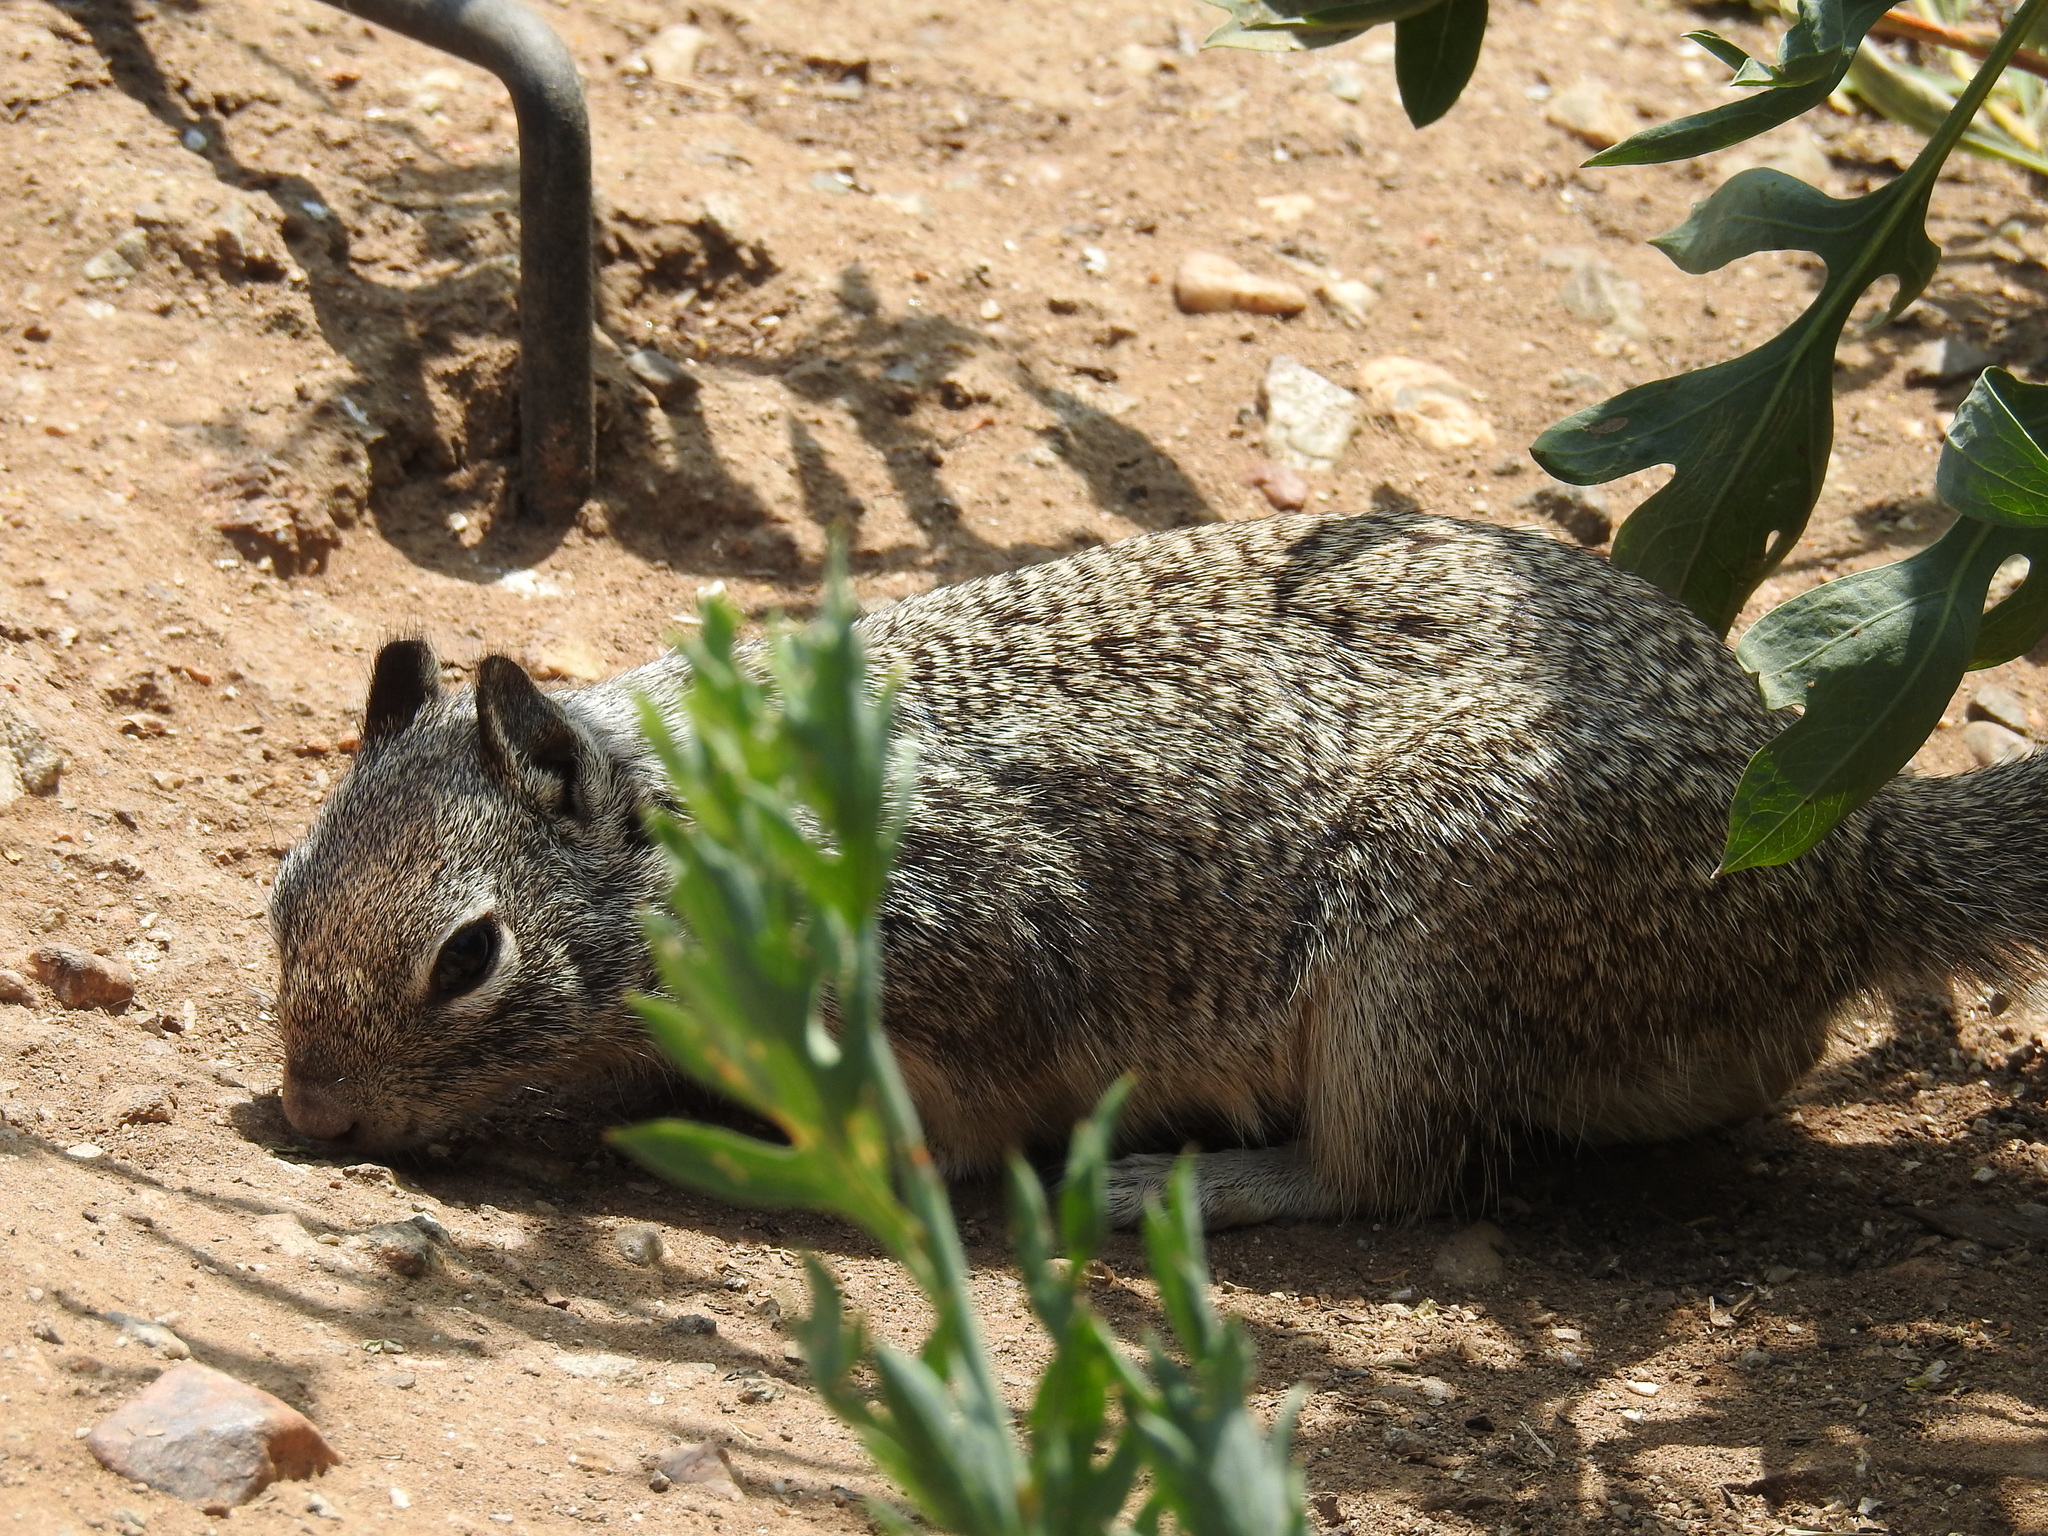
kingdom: Animalia
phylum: Chordata
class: Mammalia
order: Rodentia
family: Sciuridae
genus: Otospermophilus
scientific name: Otospermophilus beecheyi
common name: California ground squirrel
